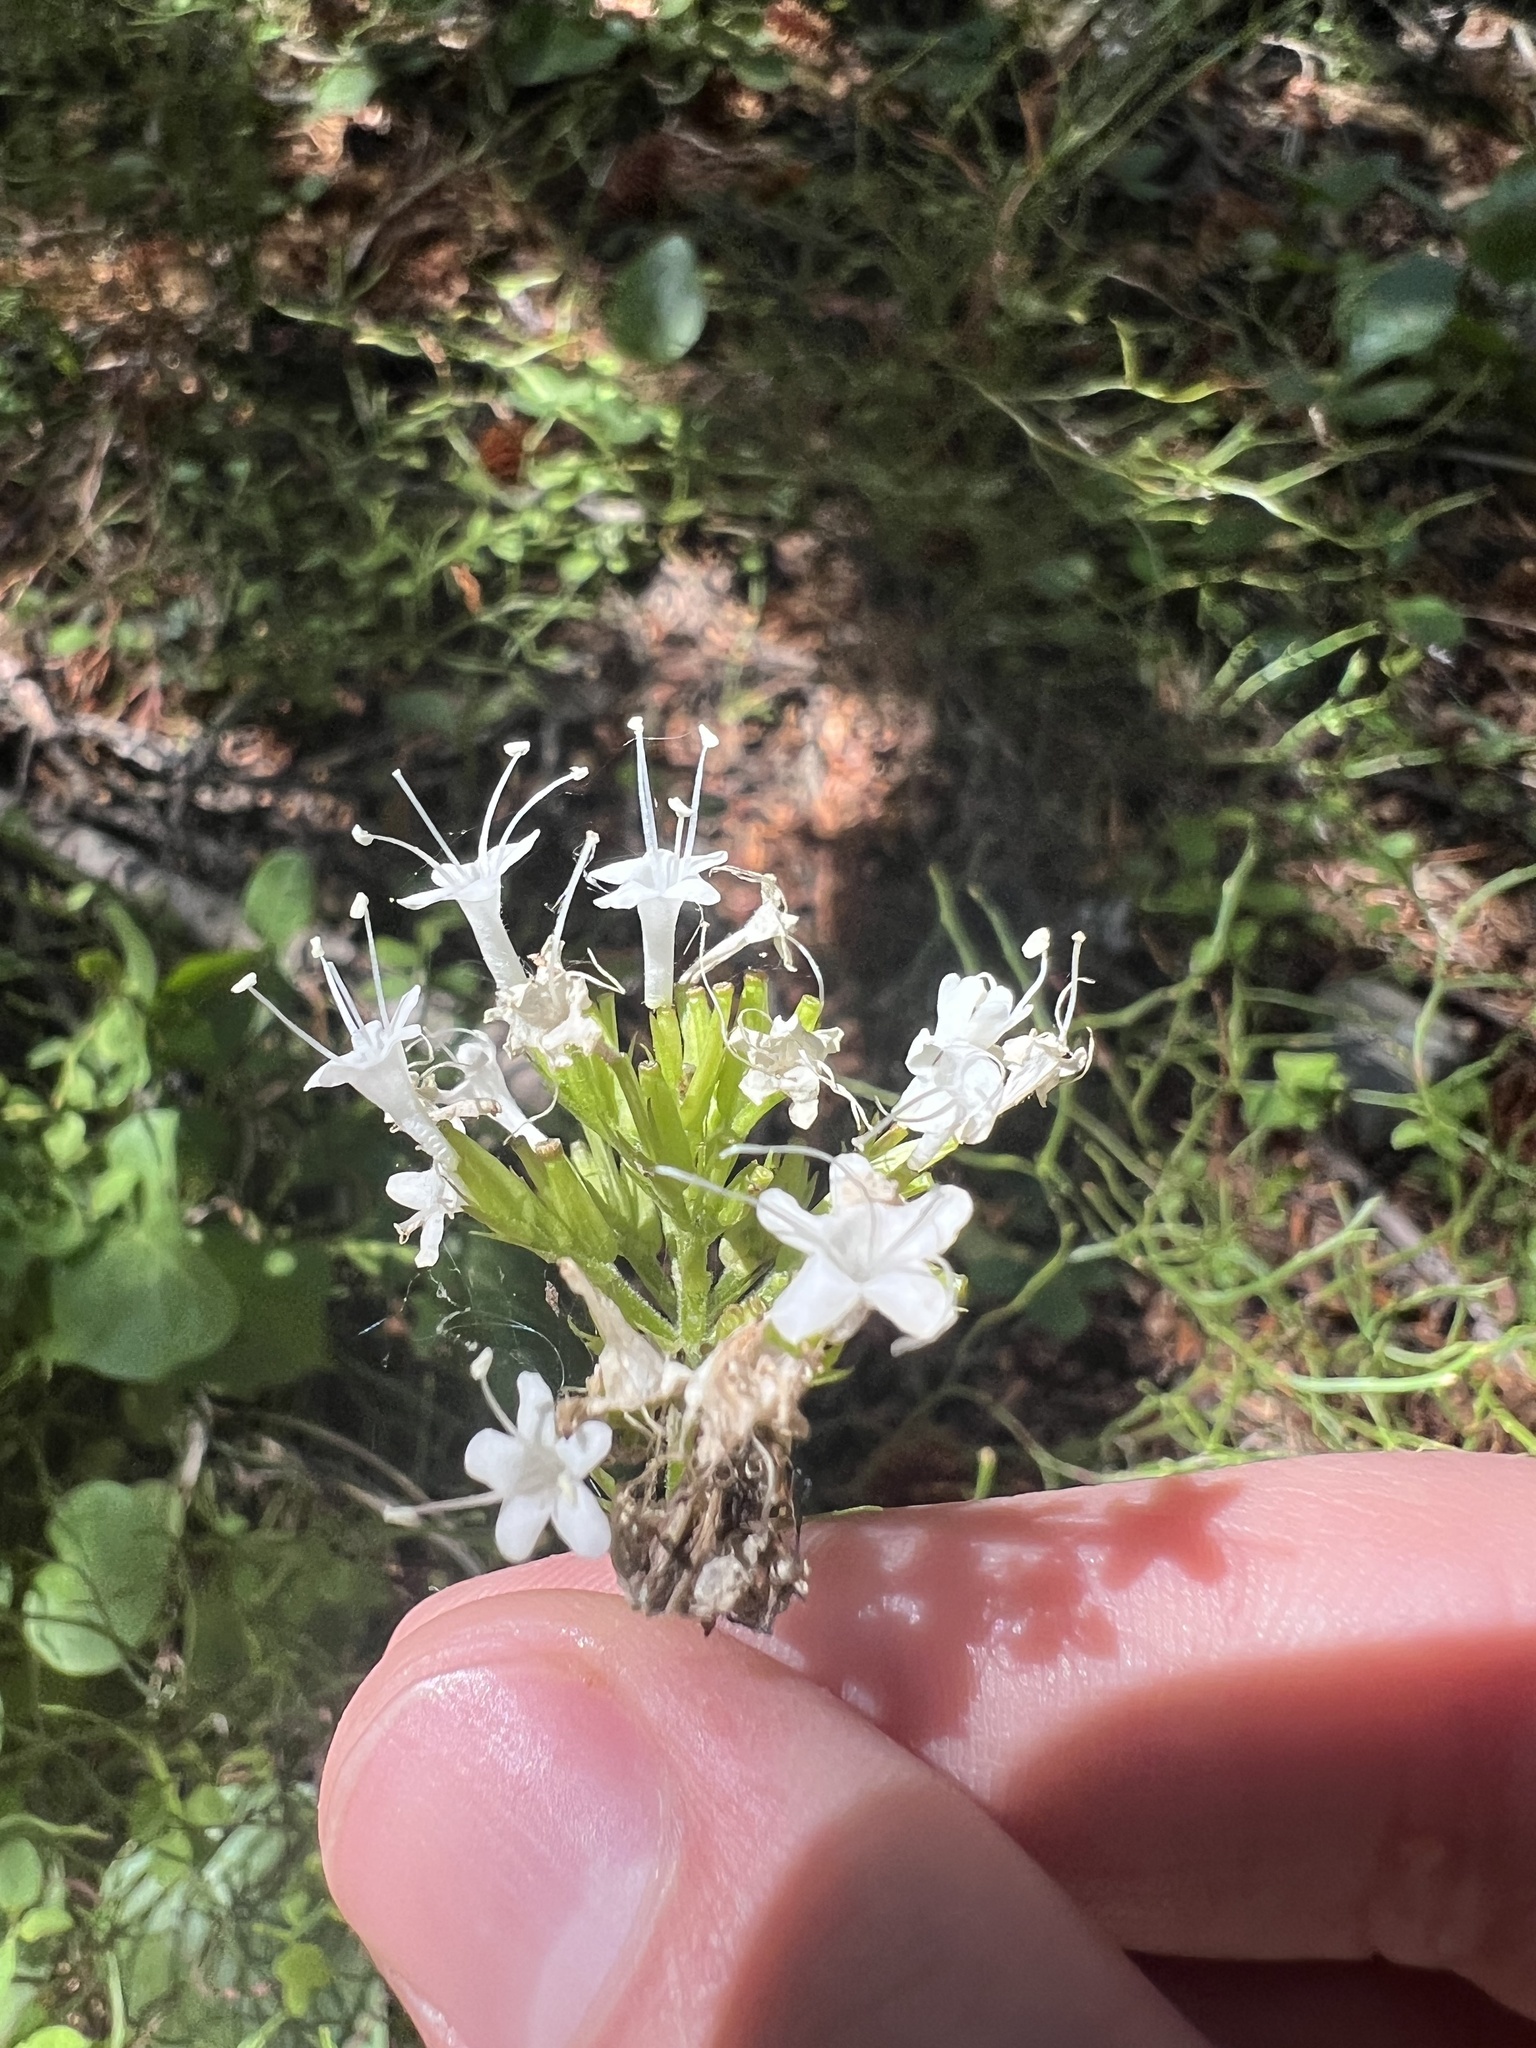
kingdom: Plantae
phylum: Tracheophyta
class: Magnoliopsida
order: Dipsacales
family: Caprifoliaceae
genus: Valeriana
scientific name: Valeriana sitchensis
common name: Pacific valerian
